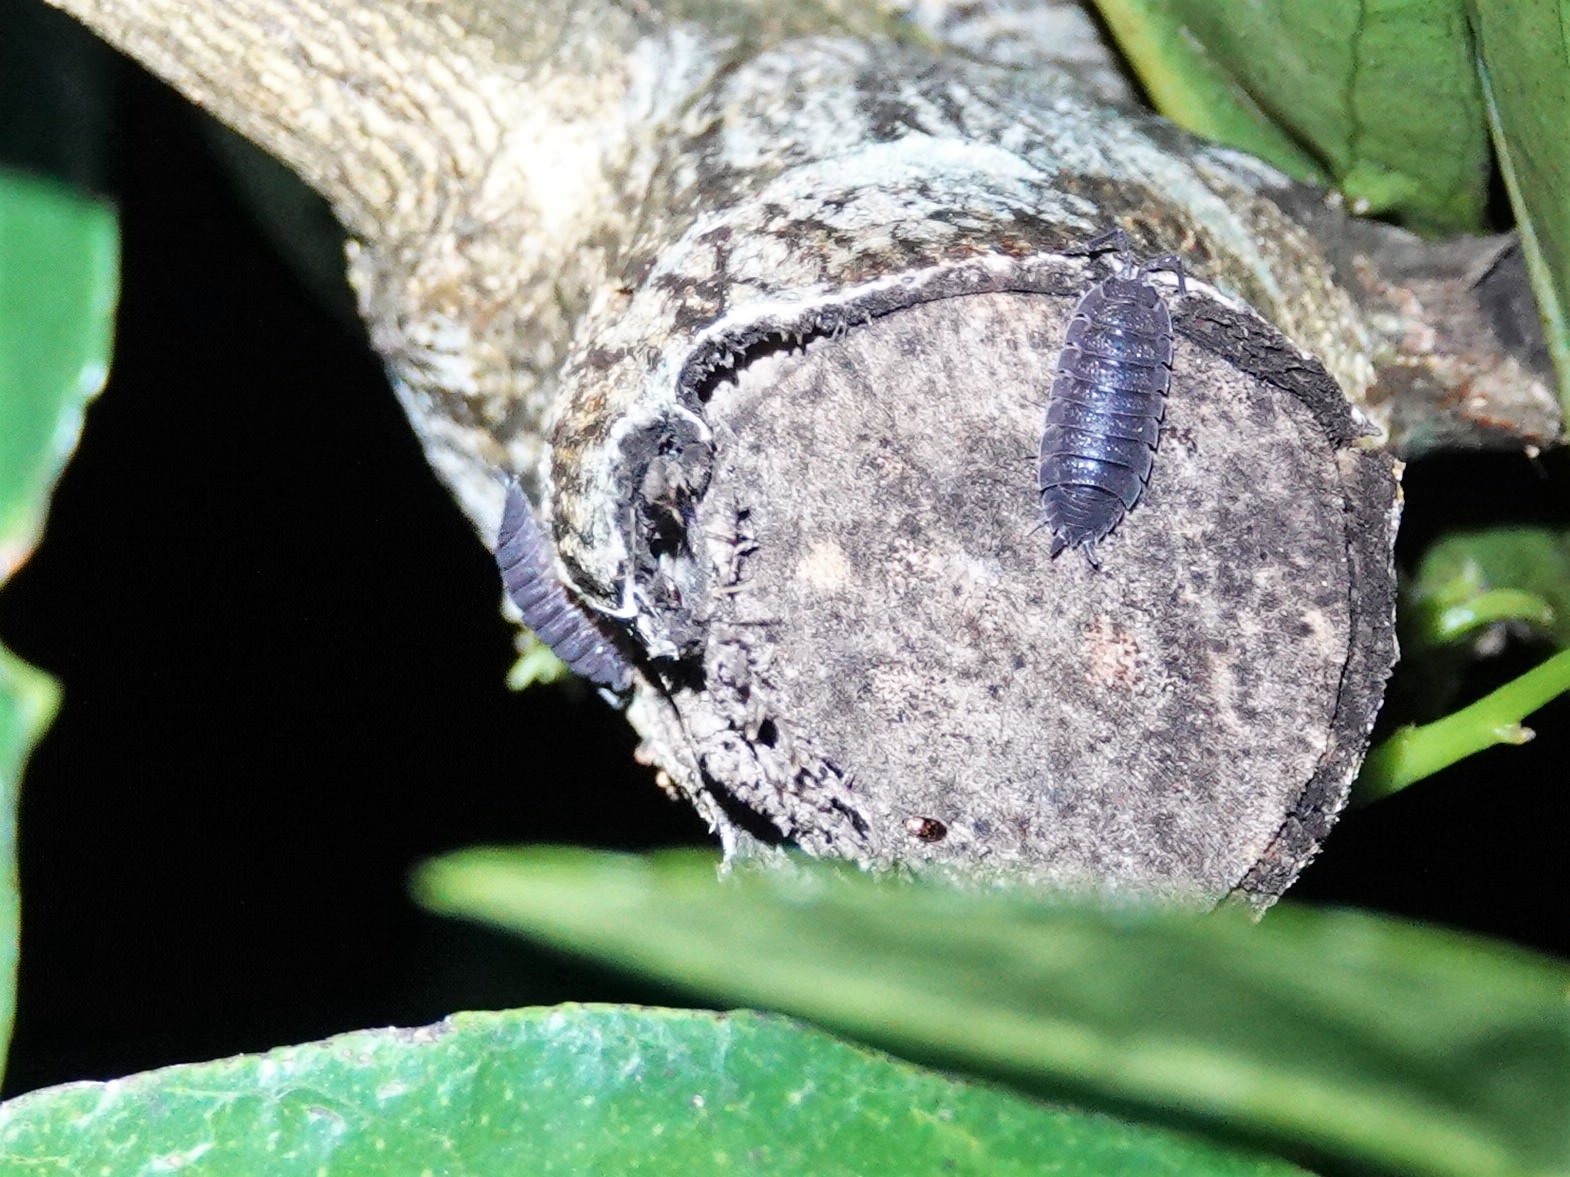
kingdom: Animalia
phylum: Arthropoda
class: Malacostraca
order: Isopoda
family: Porcellionidae
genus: Porcellio
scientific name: Porcellio scaber
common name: Common rough woodlouse
